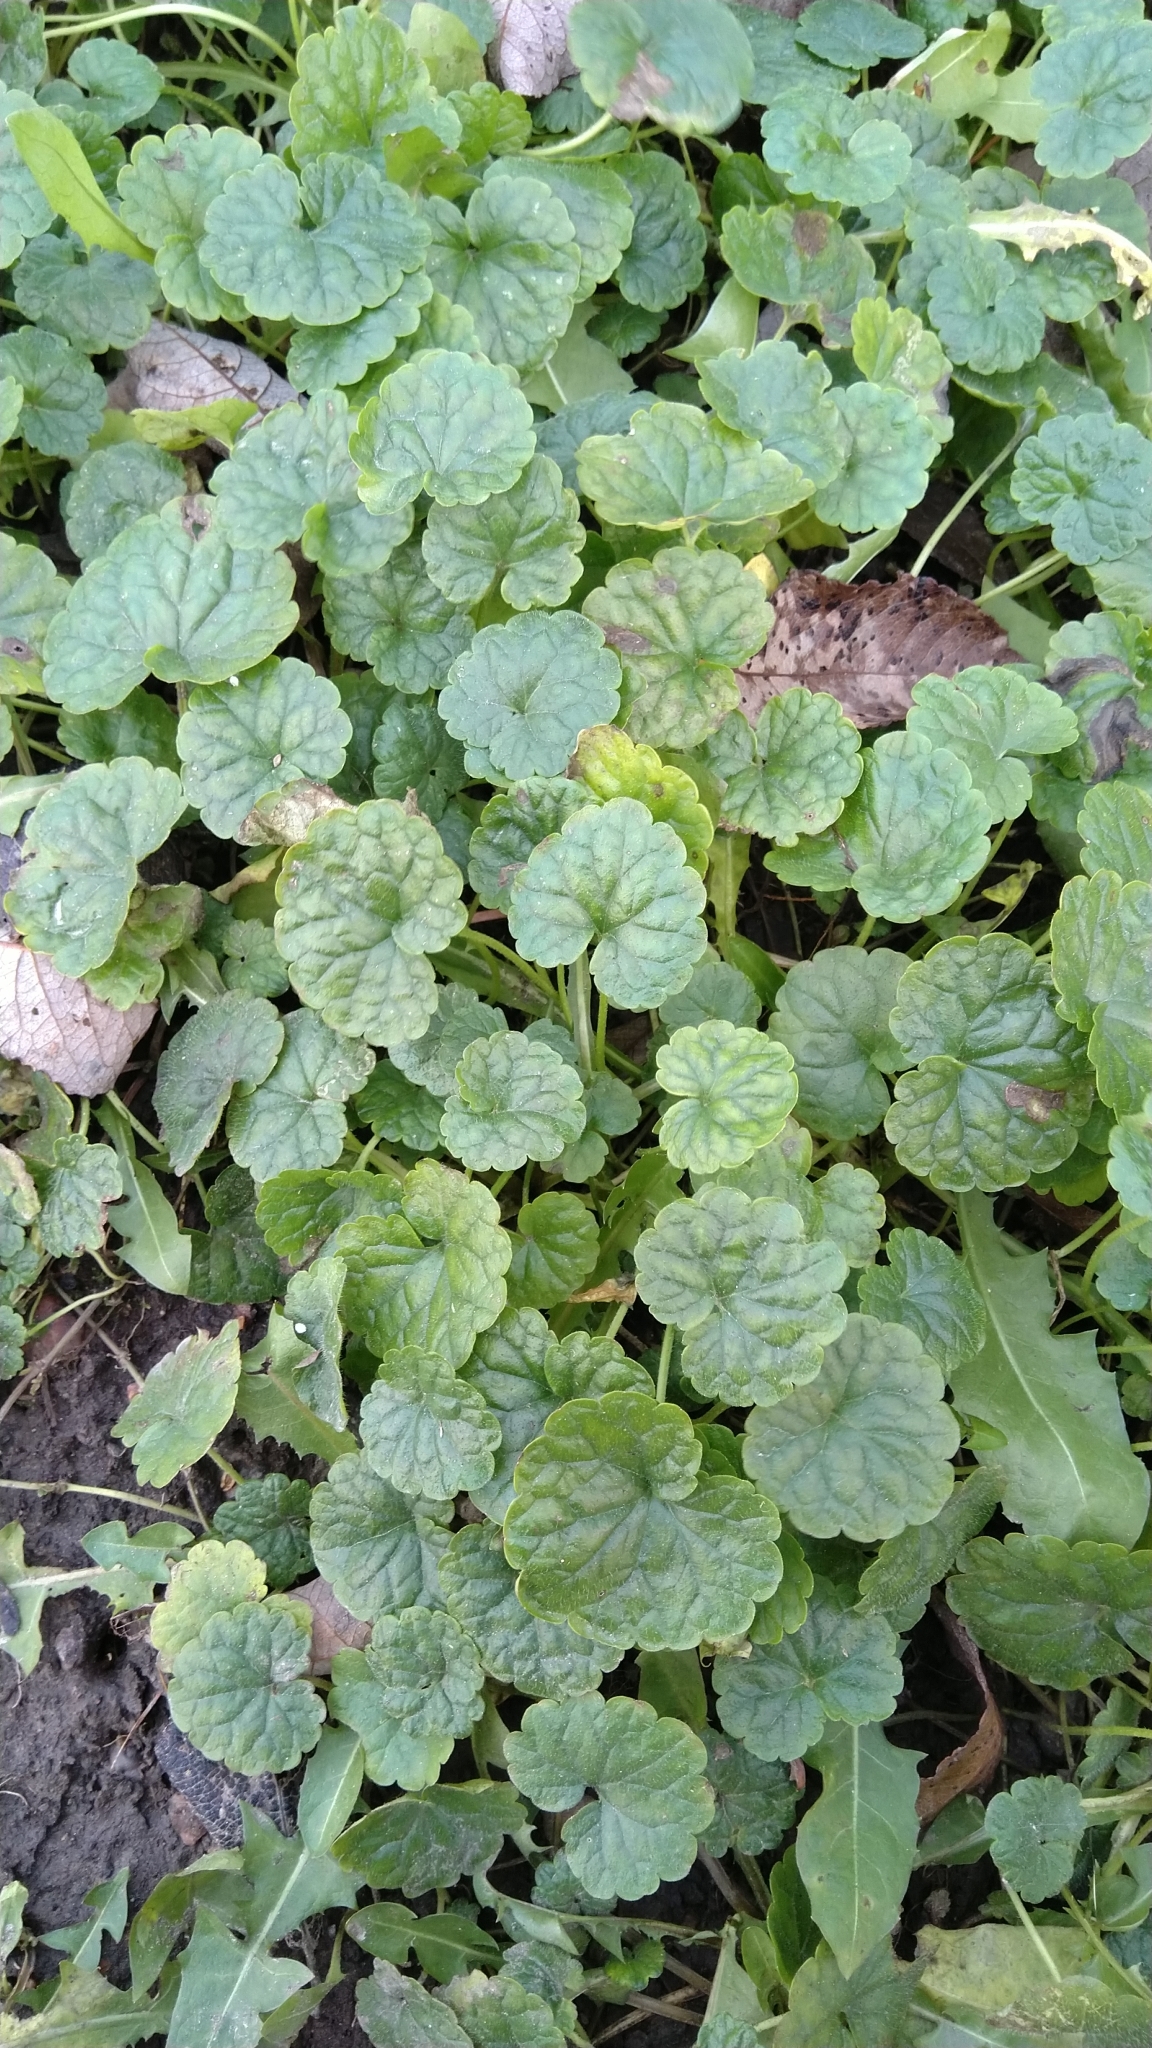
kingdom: Plantae
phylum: Tracheophyta
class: Magnoliopsida
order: Lamiales
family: Lamiaceae
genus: Glechoma
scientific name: Glechoma hederacea
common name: Ground ivy
